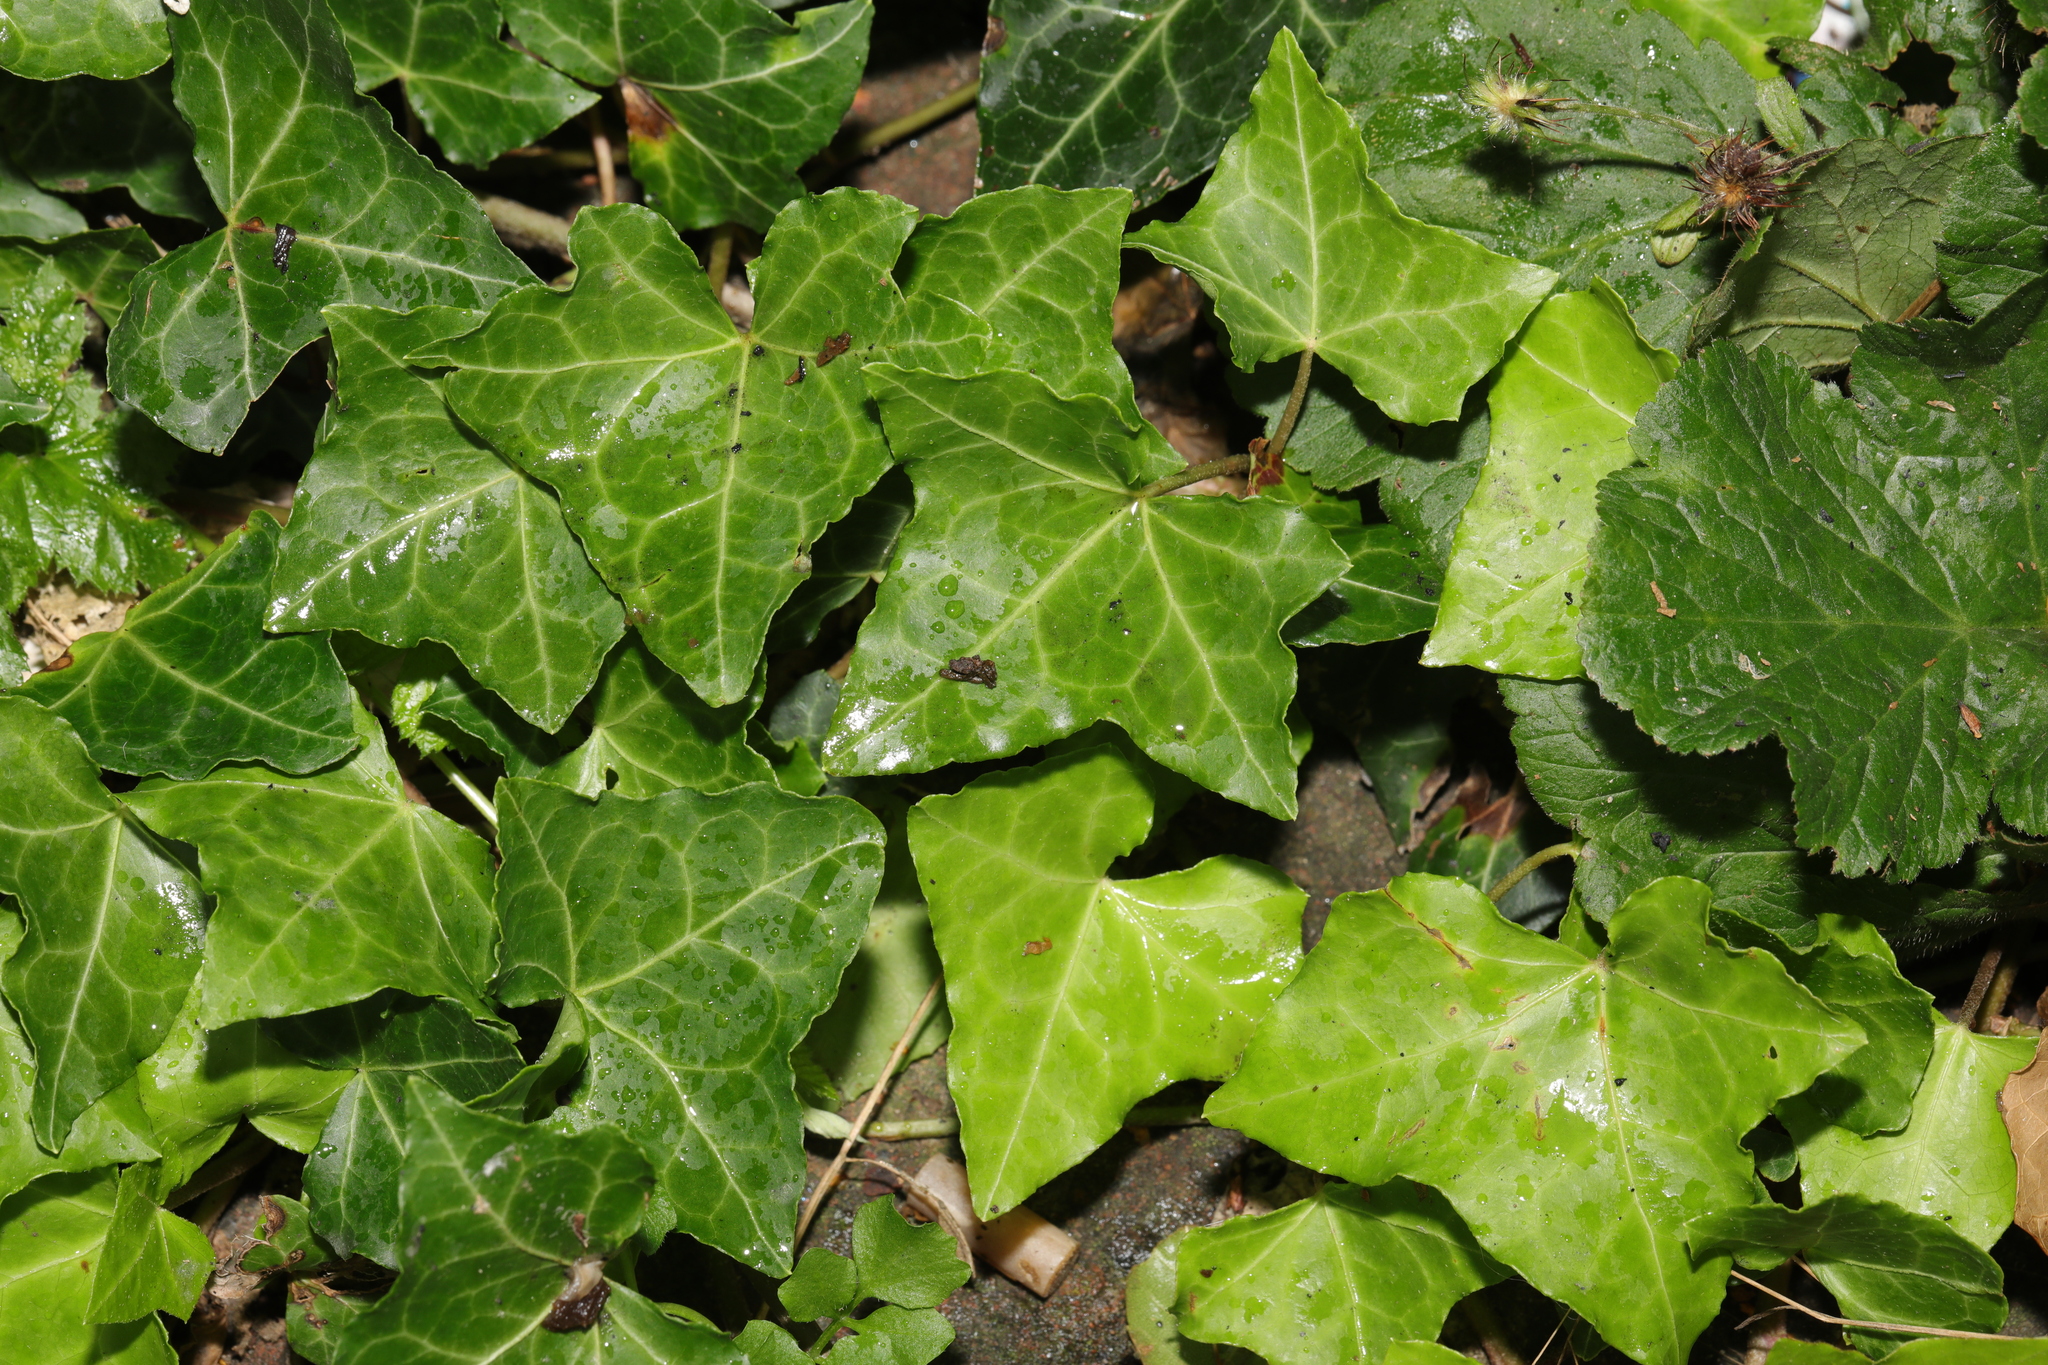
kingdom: Plantae
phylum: Tracheophyta
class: Magnoliopsida
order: Apiales
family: Araliaceae
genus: Hedera
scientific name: Hedera helix
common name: Ivy
